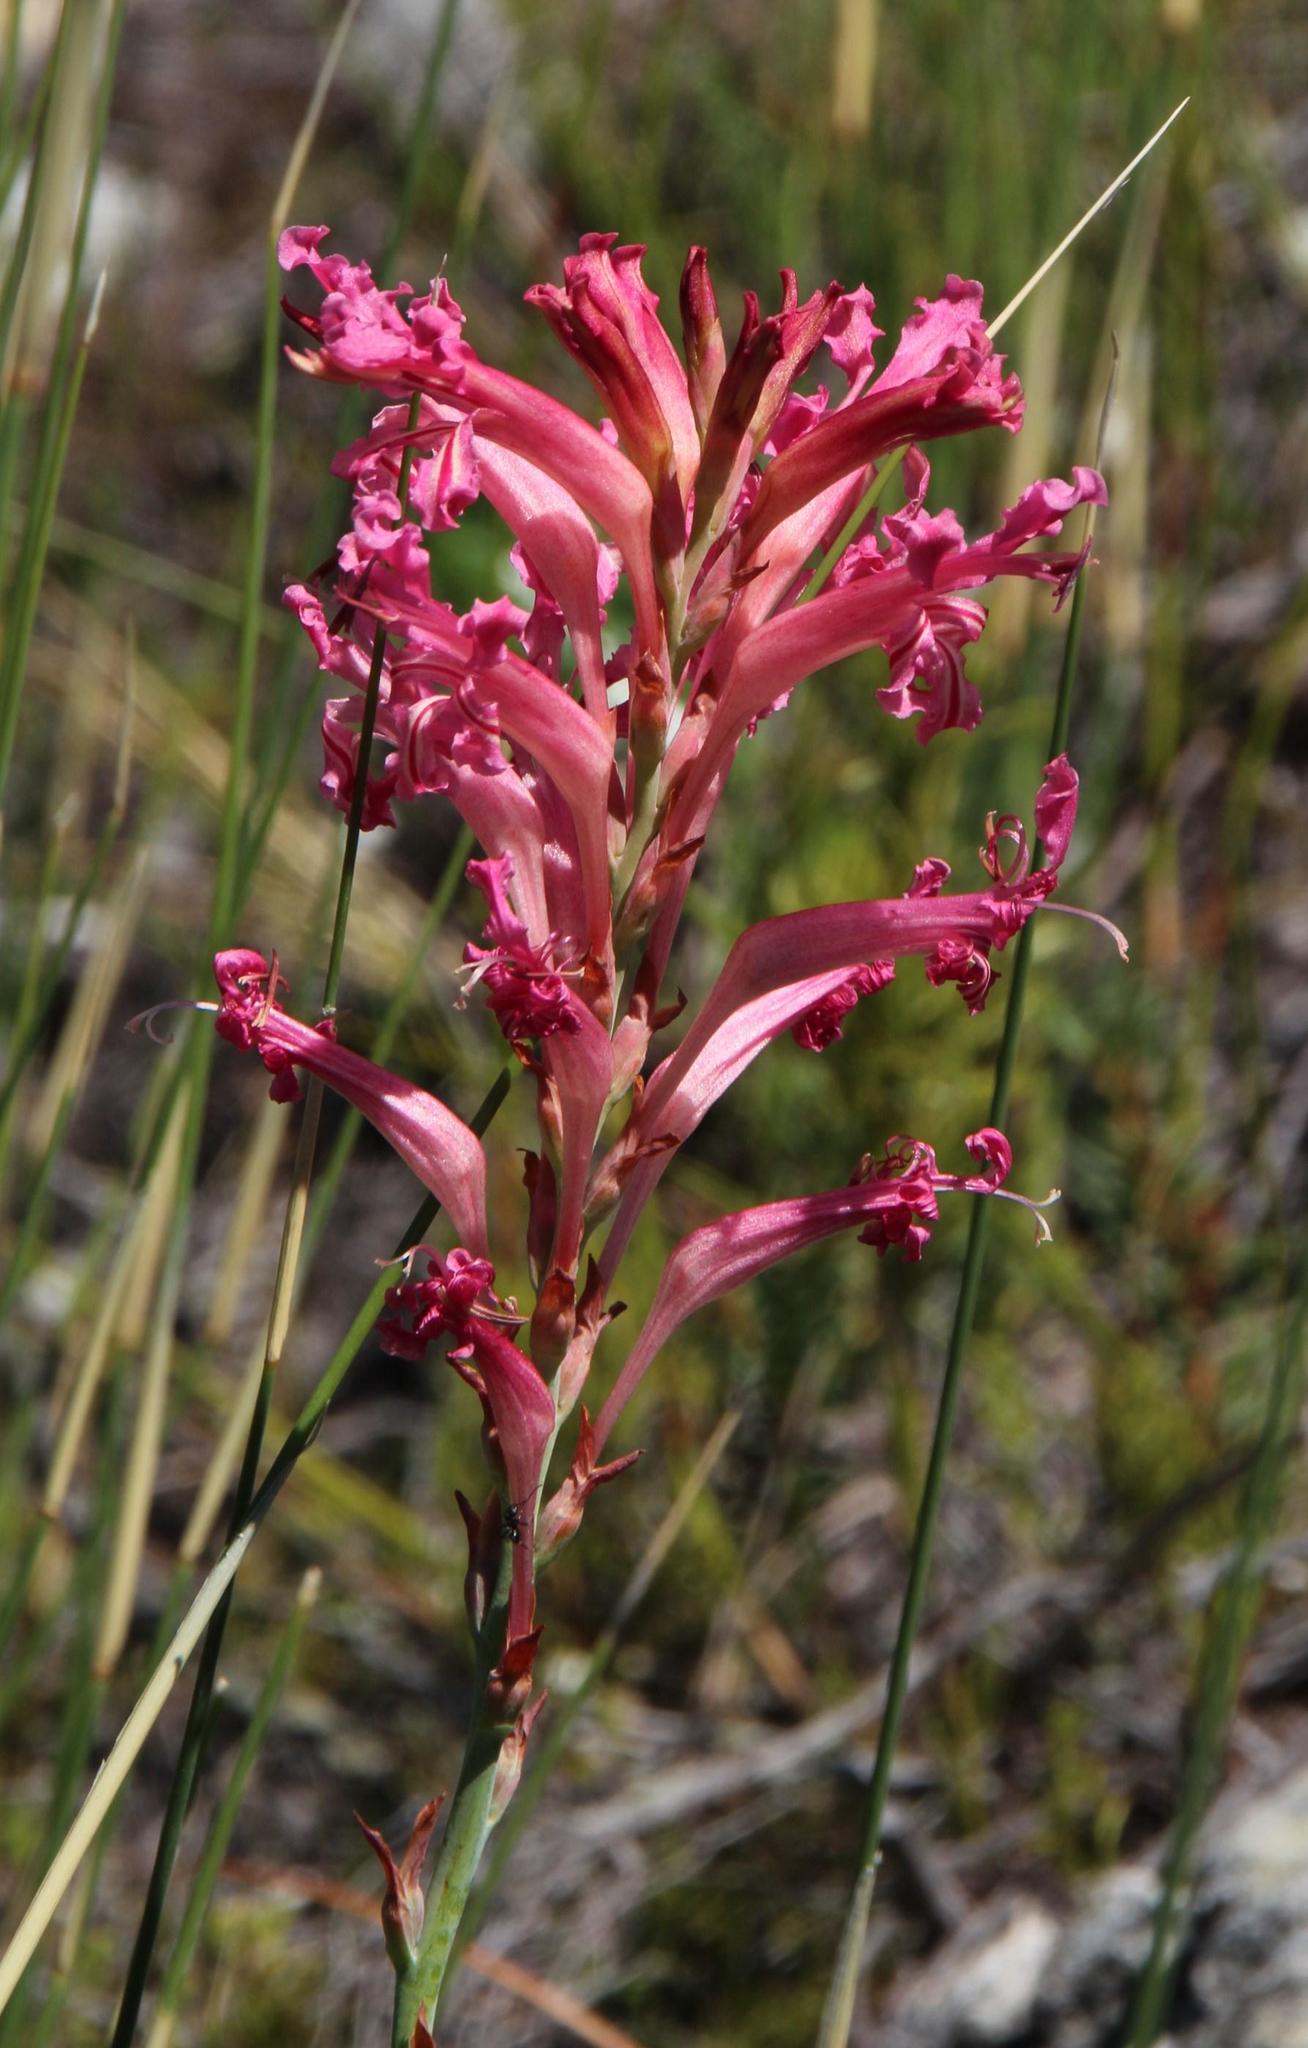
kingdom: Plantae
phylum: Tracheophyta
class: Liliopsida
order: Asparagales
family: Iridaceae
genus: Tritoniopsis
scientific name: Tritoniopsis antholyza
